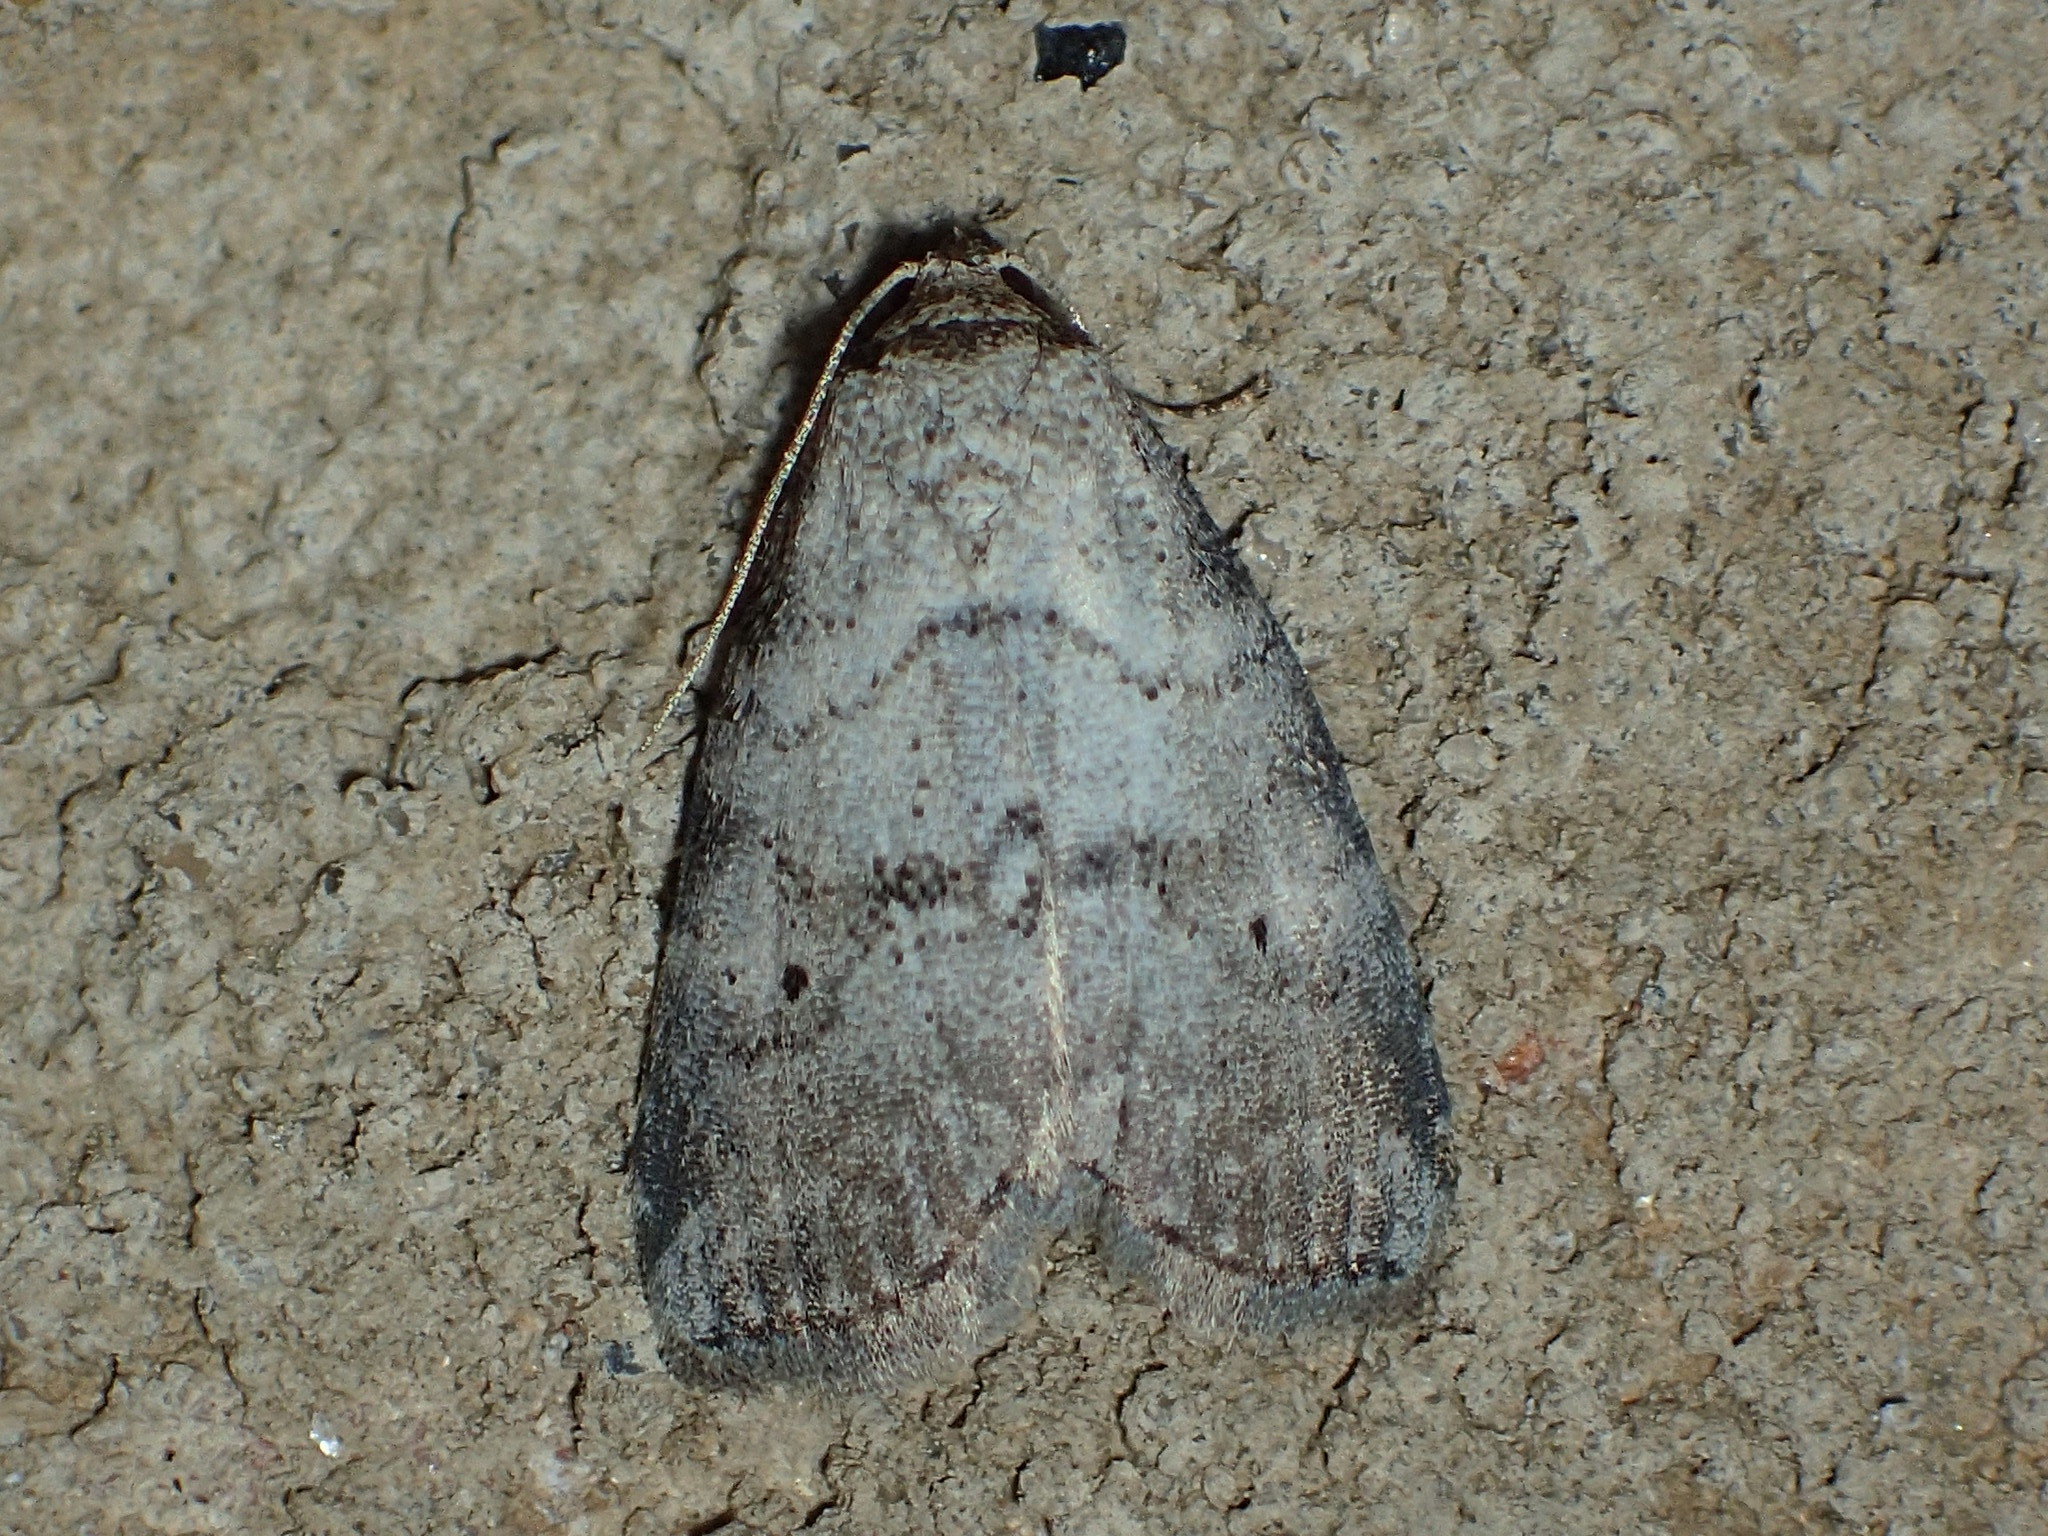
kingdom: Animalia
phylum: Arthropoda
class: Insecta
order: Lepidoptera
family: Erebidae
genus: Hyperstrotia
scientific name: Hyperstrotia pervertens
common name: Dotted graylet
